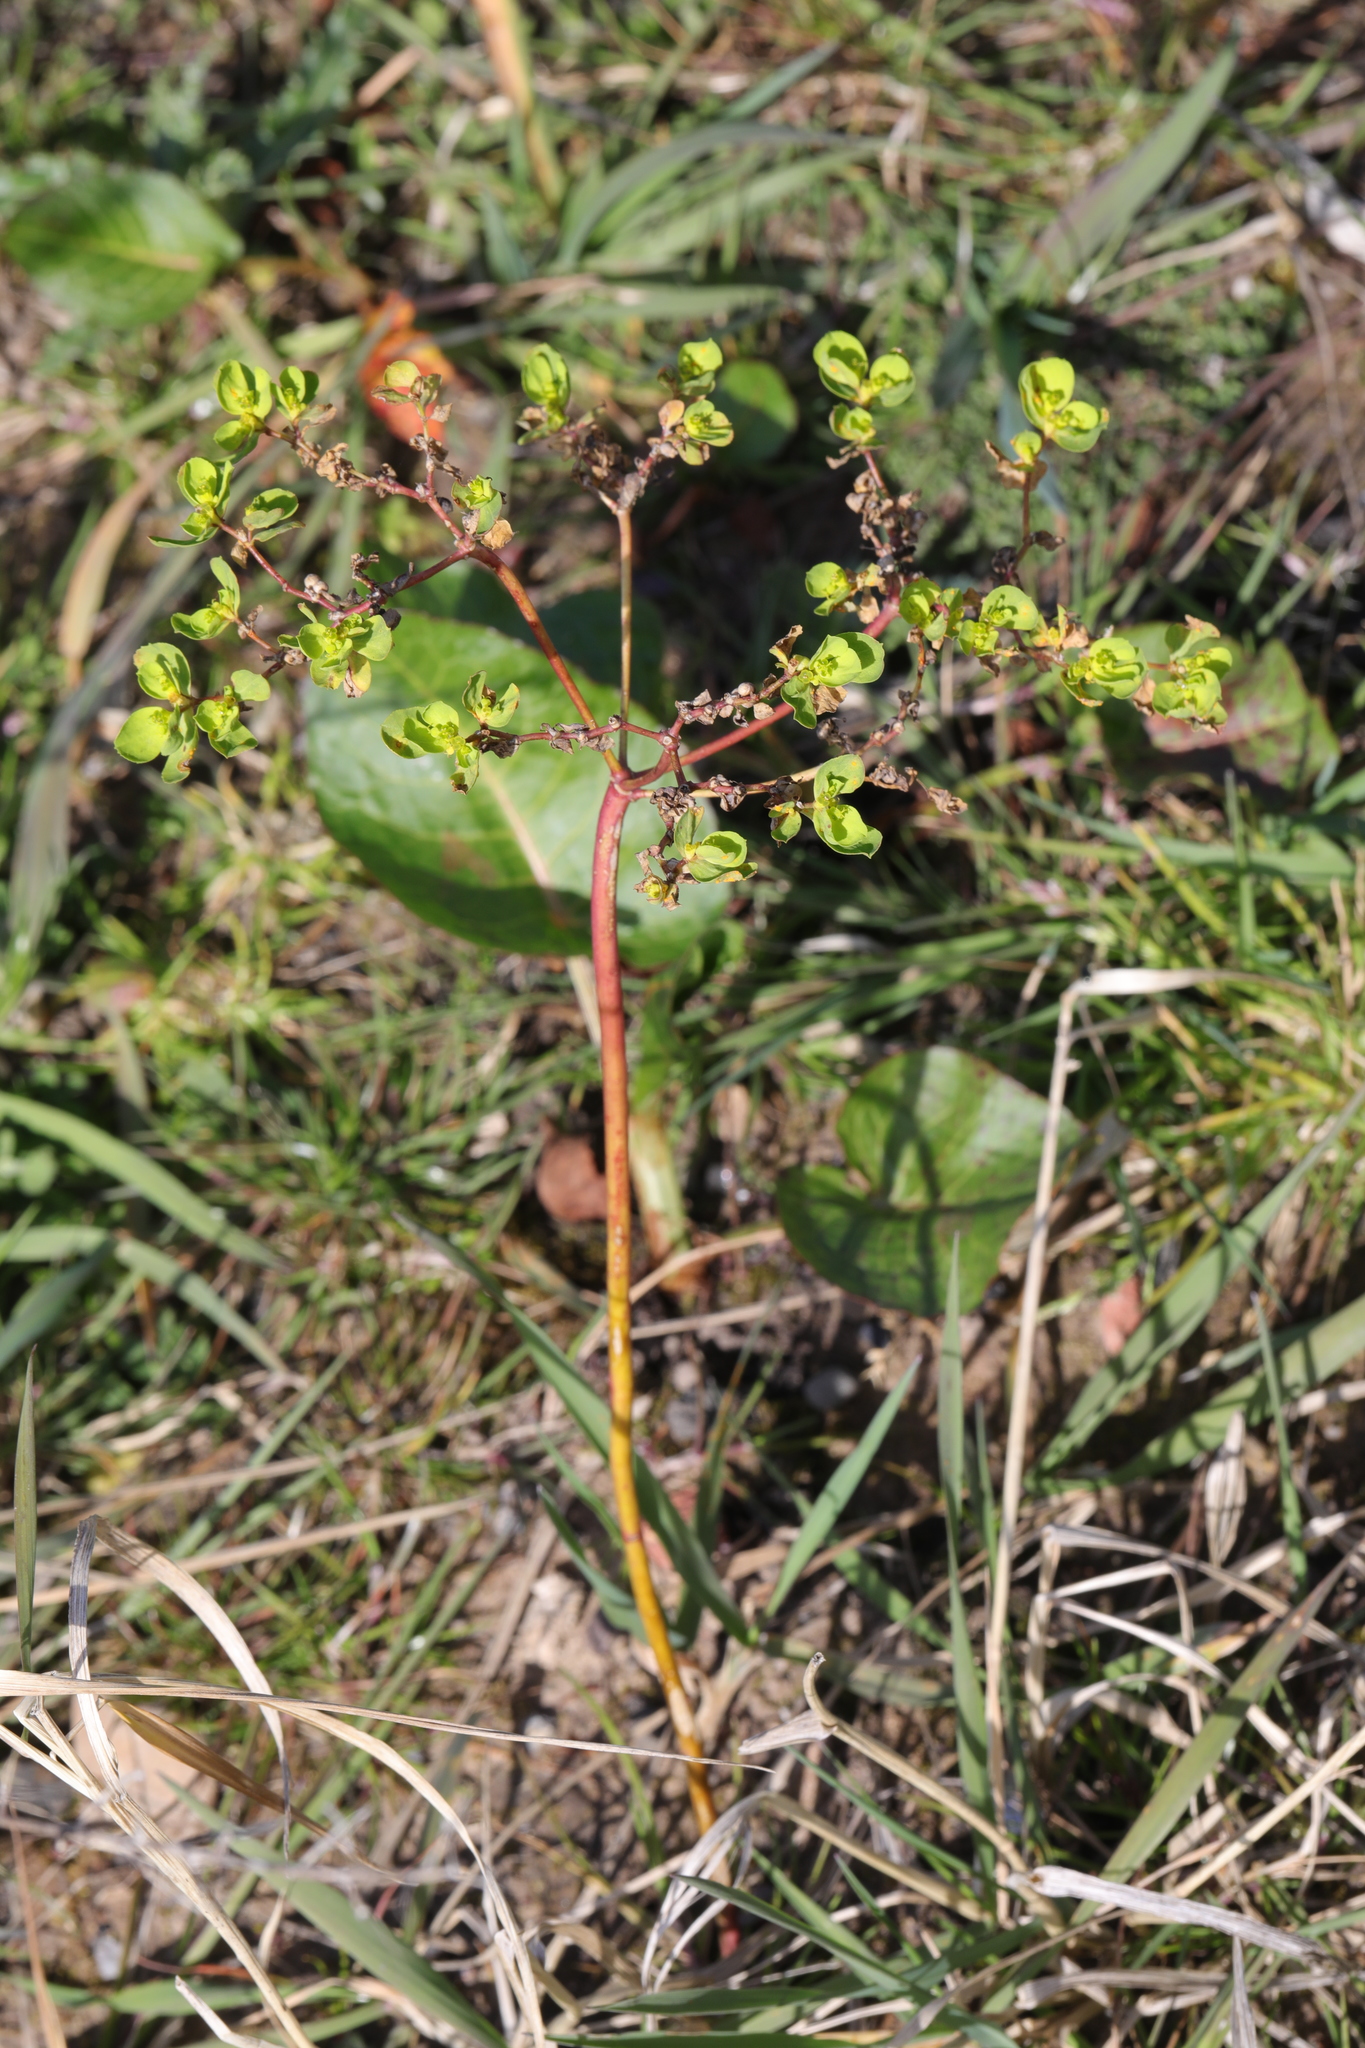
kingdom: Plantae
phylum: Tracheophyta
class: Magnoliopsida
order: Malpighiales
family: Euphorbiaceae
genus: Euphorbia
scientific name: Euphorbia helioscopia
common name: Sun spurge
